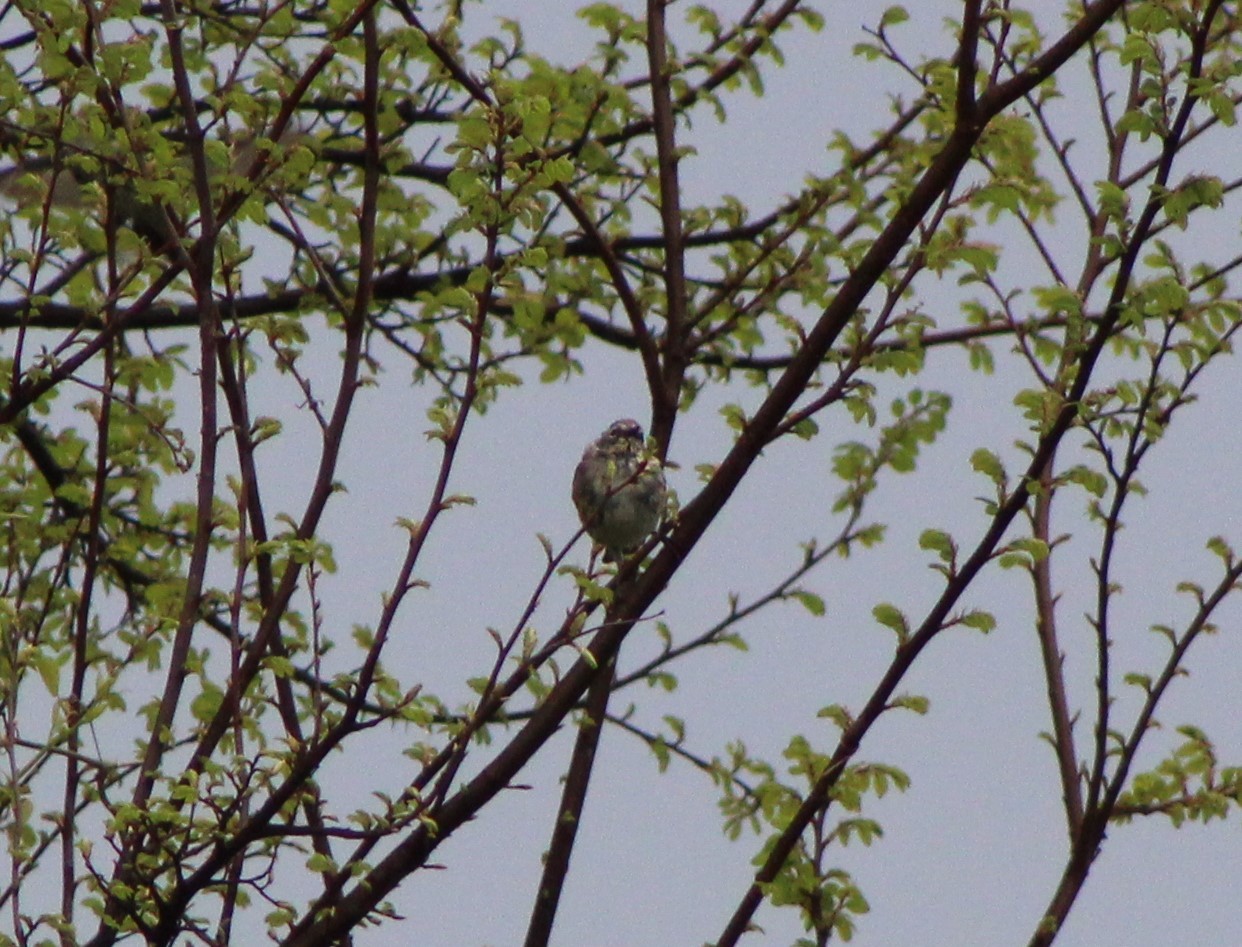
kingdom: Animalia
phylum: Chordata
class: Aves
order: Passeriformes
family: Parulidae
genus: Setophaga
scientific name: Setophaga coronata
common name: Myrtle warbler
